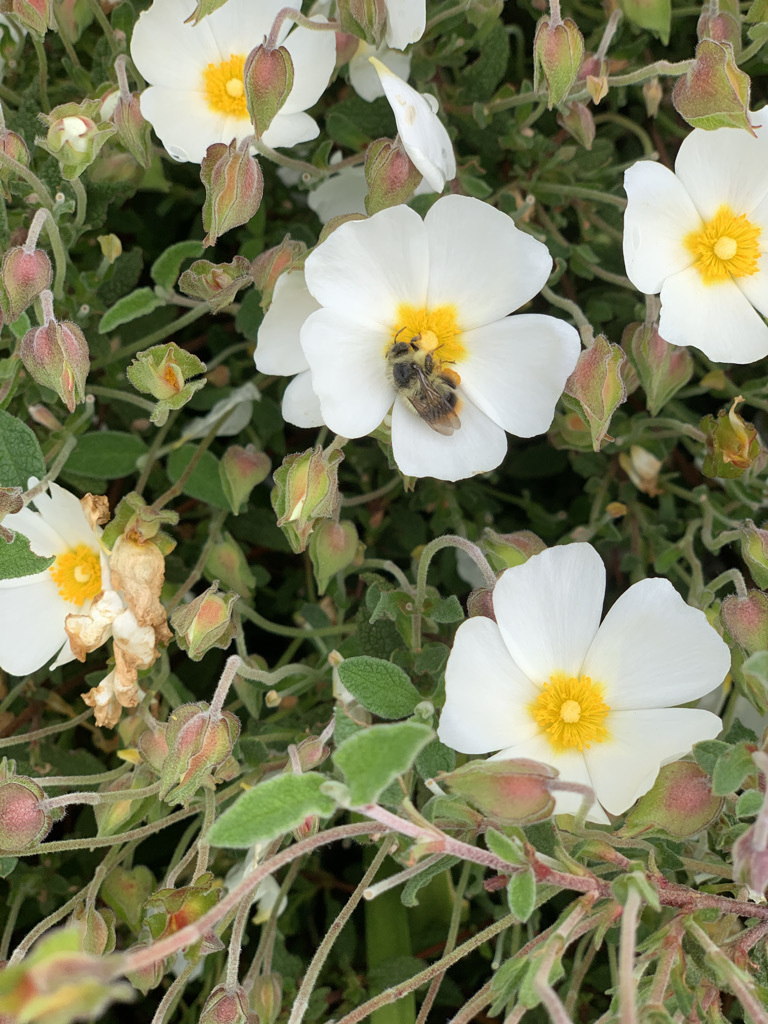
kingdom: Animalia
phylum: Arthropoda
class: Insecta
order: Hymenoptera
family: Apidae
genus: Bombus
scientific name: Bombus mixtus
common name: Fuzzy-horned bumble bee
